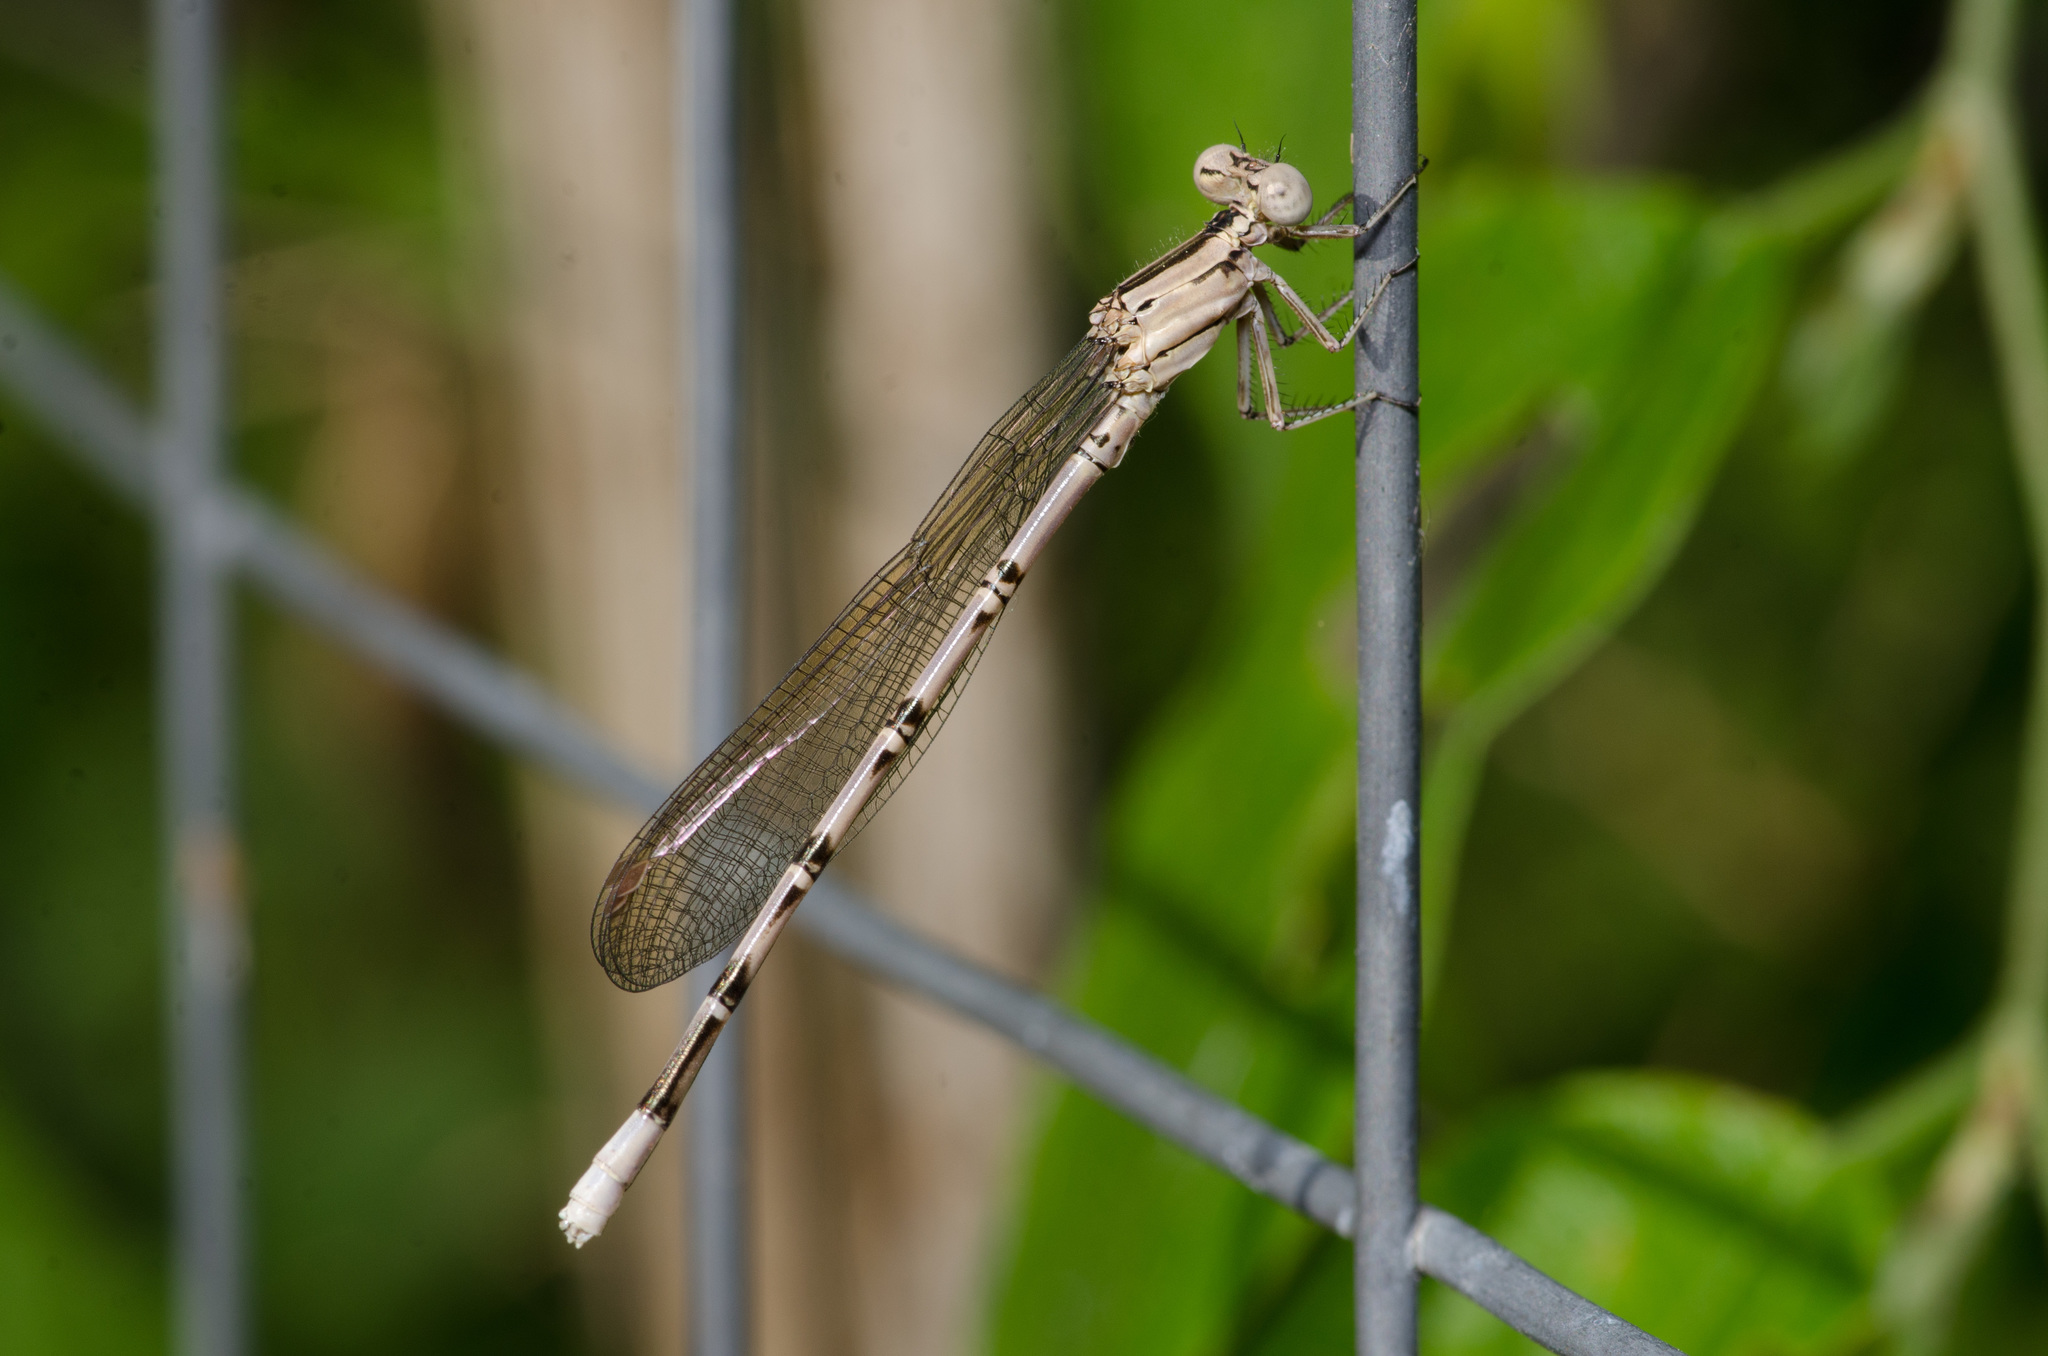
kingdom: Animalia
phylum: Arthropoda
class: Insecta
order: Odonata
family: Coenagrionidae
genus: Argia
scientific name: Argia funebris
